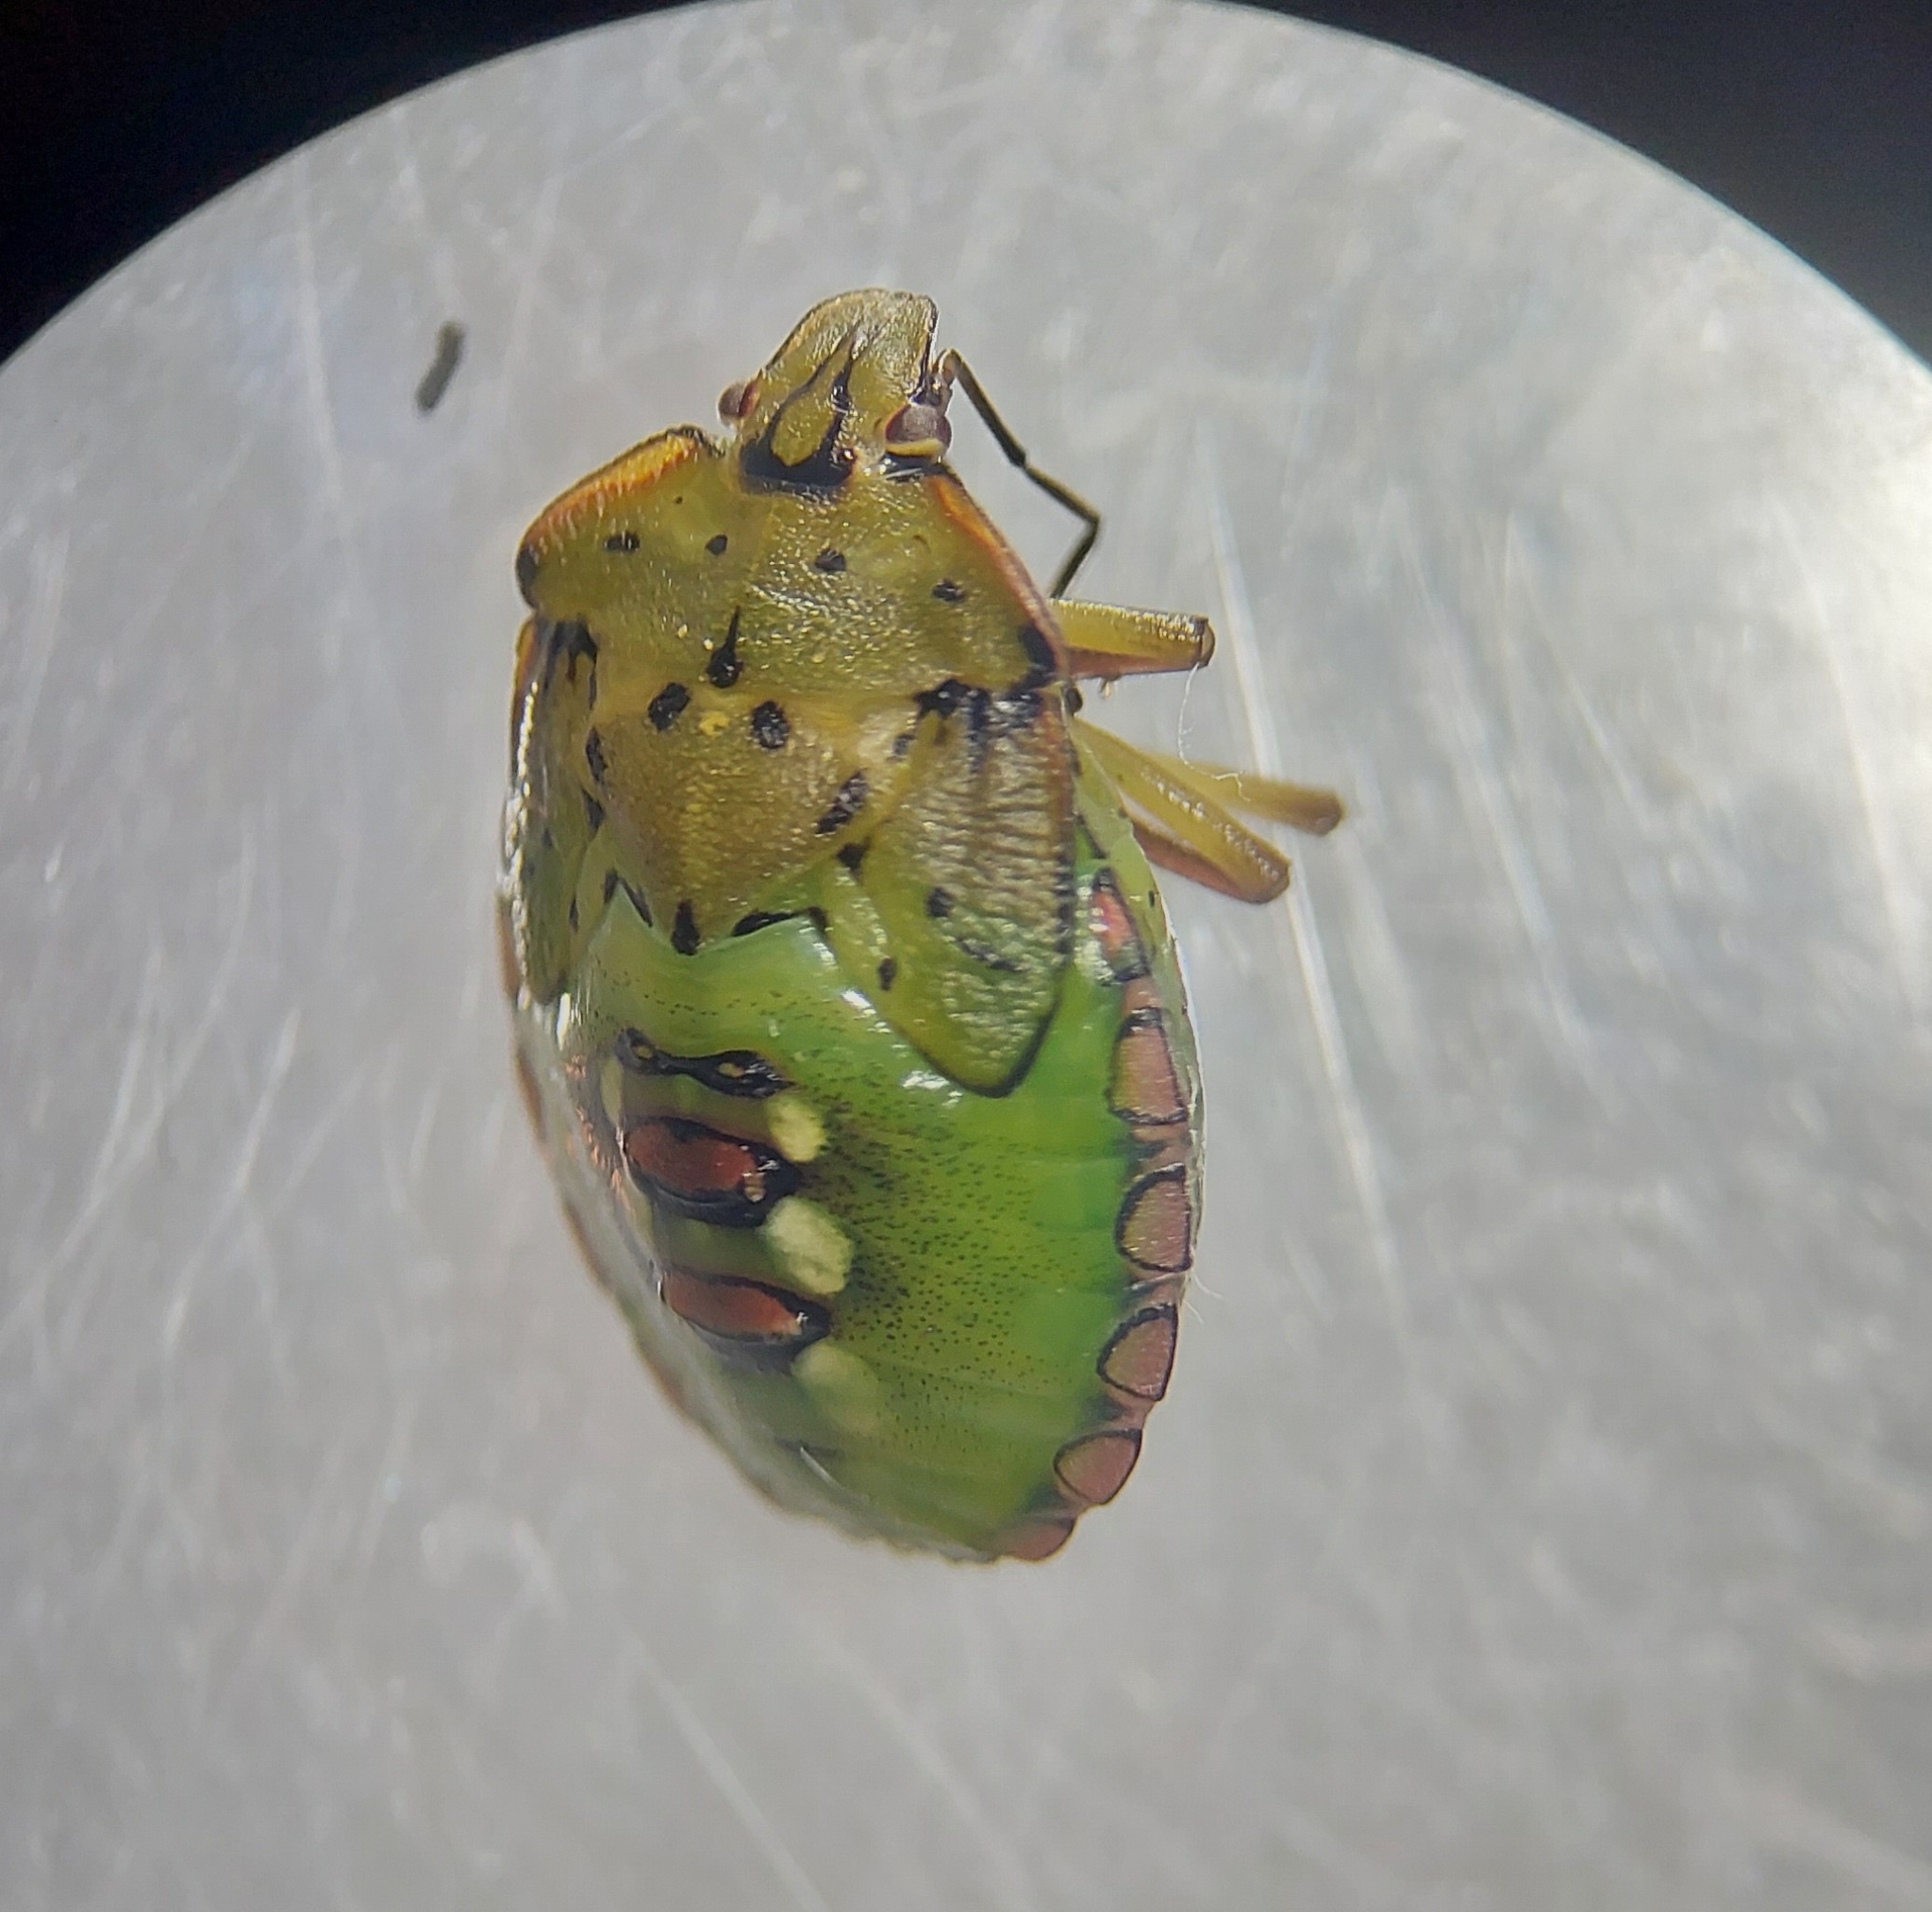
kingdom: Animalia
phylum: Arthropoda
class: Insecta
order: Hemiptera
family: Pentatomidae
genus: Nezara
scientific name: Nezara viridula
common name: Southern green stink bug
